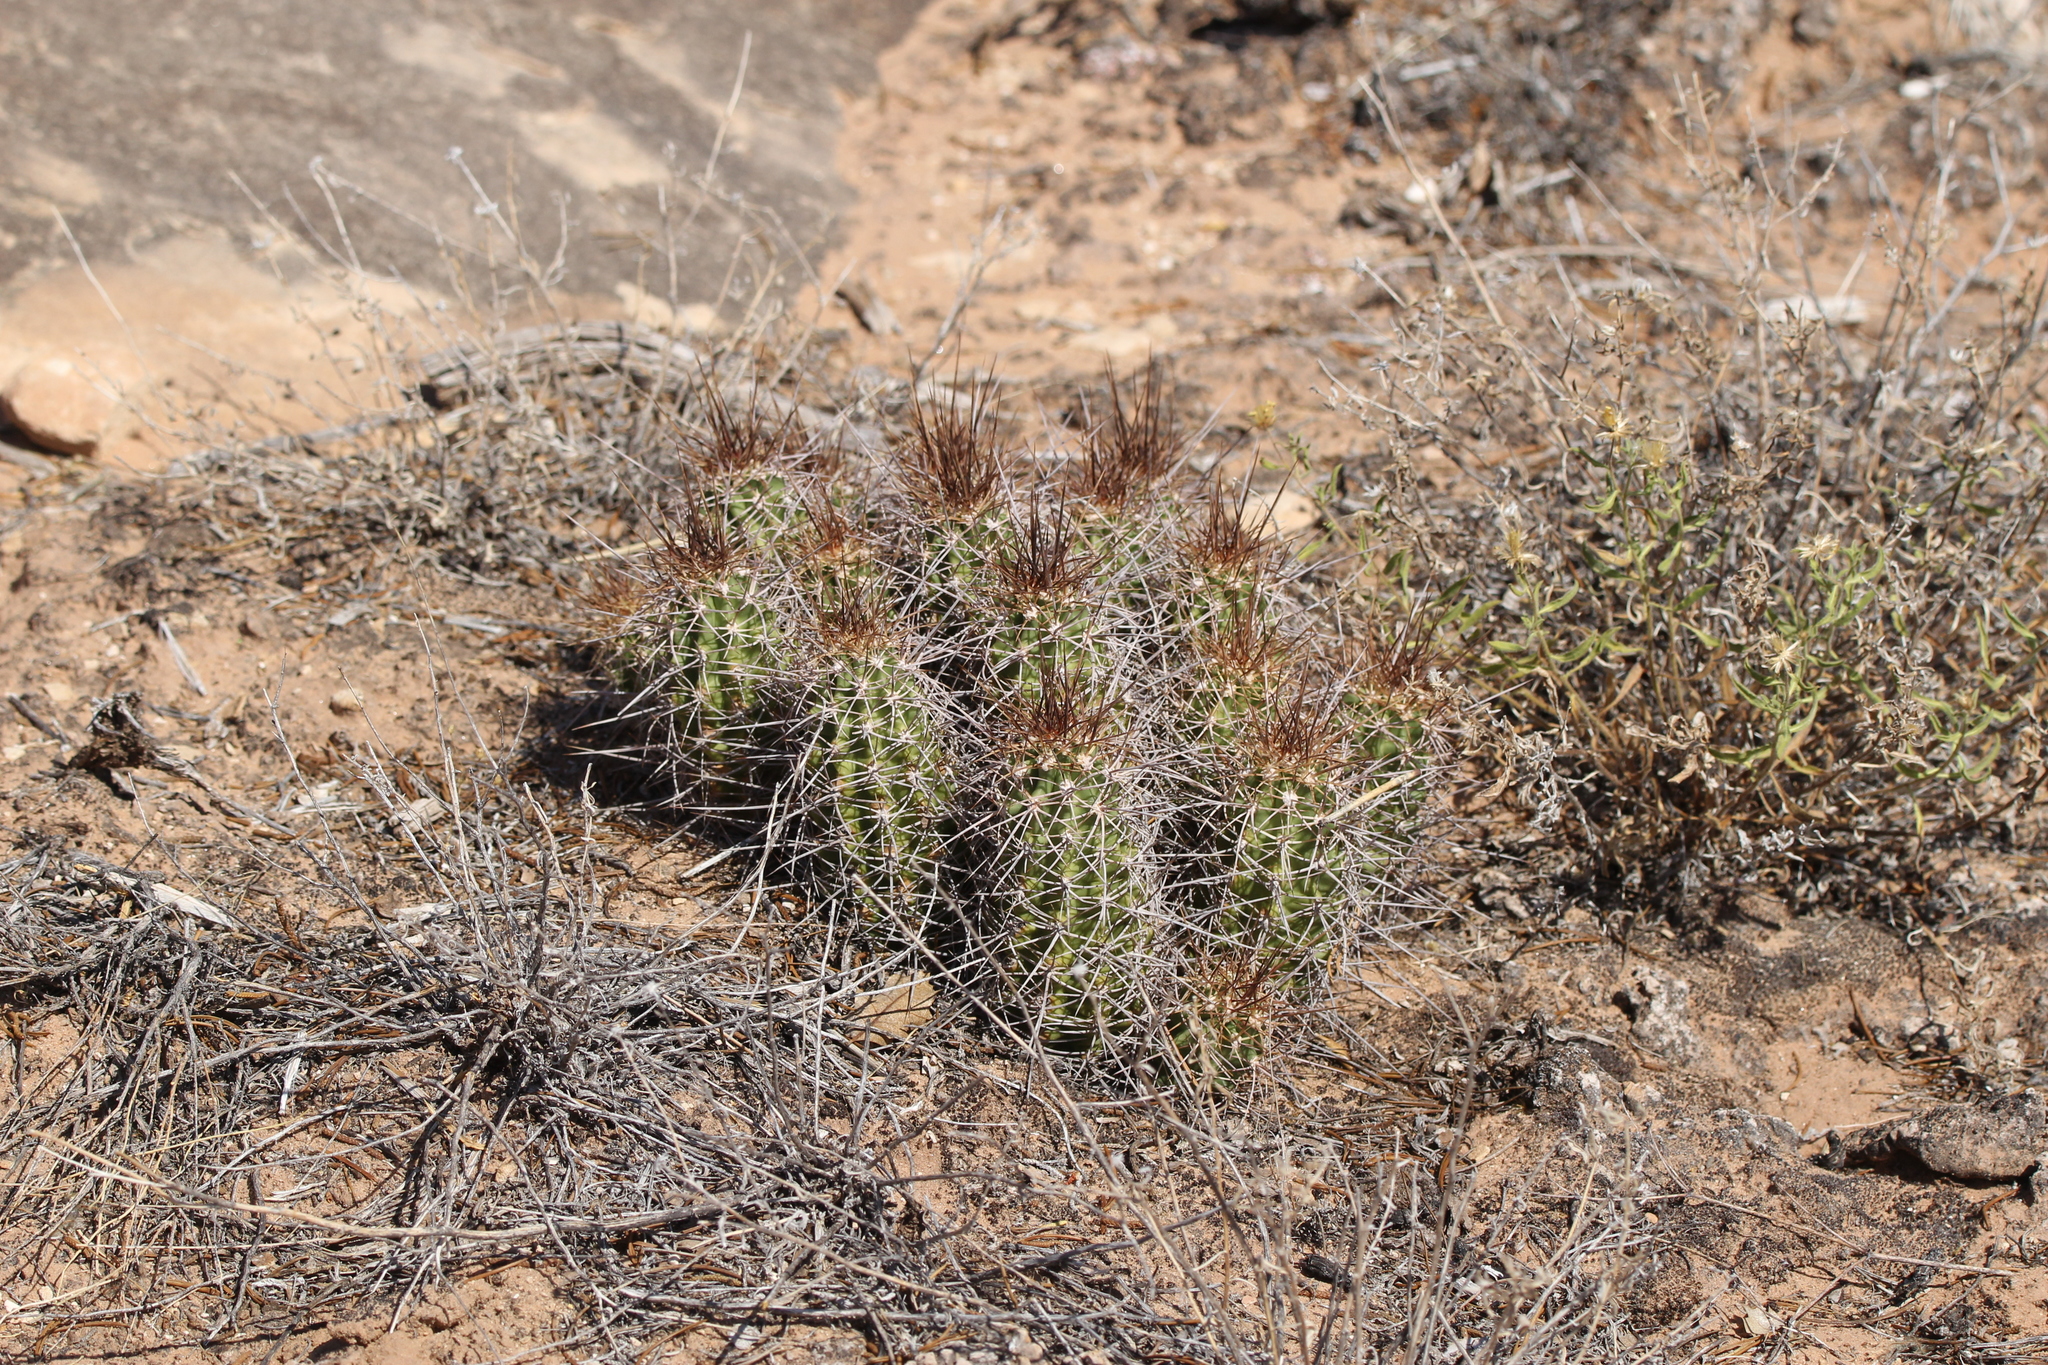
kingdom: Plantae
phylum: Tracheophyta
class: Magnoliopsida
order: Caryophyllales
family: Cactaceae
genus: Echinocereus
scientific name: Echinocereus triglochidiatus
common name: Claretcup hedgehog
